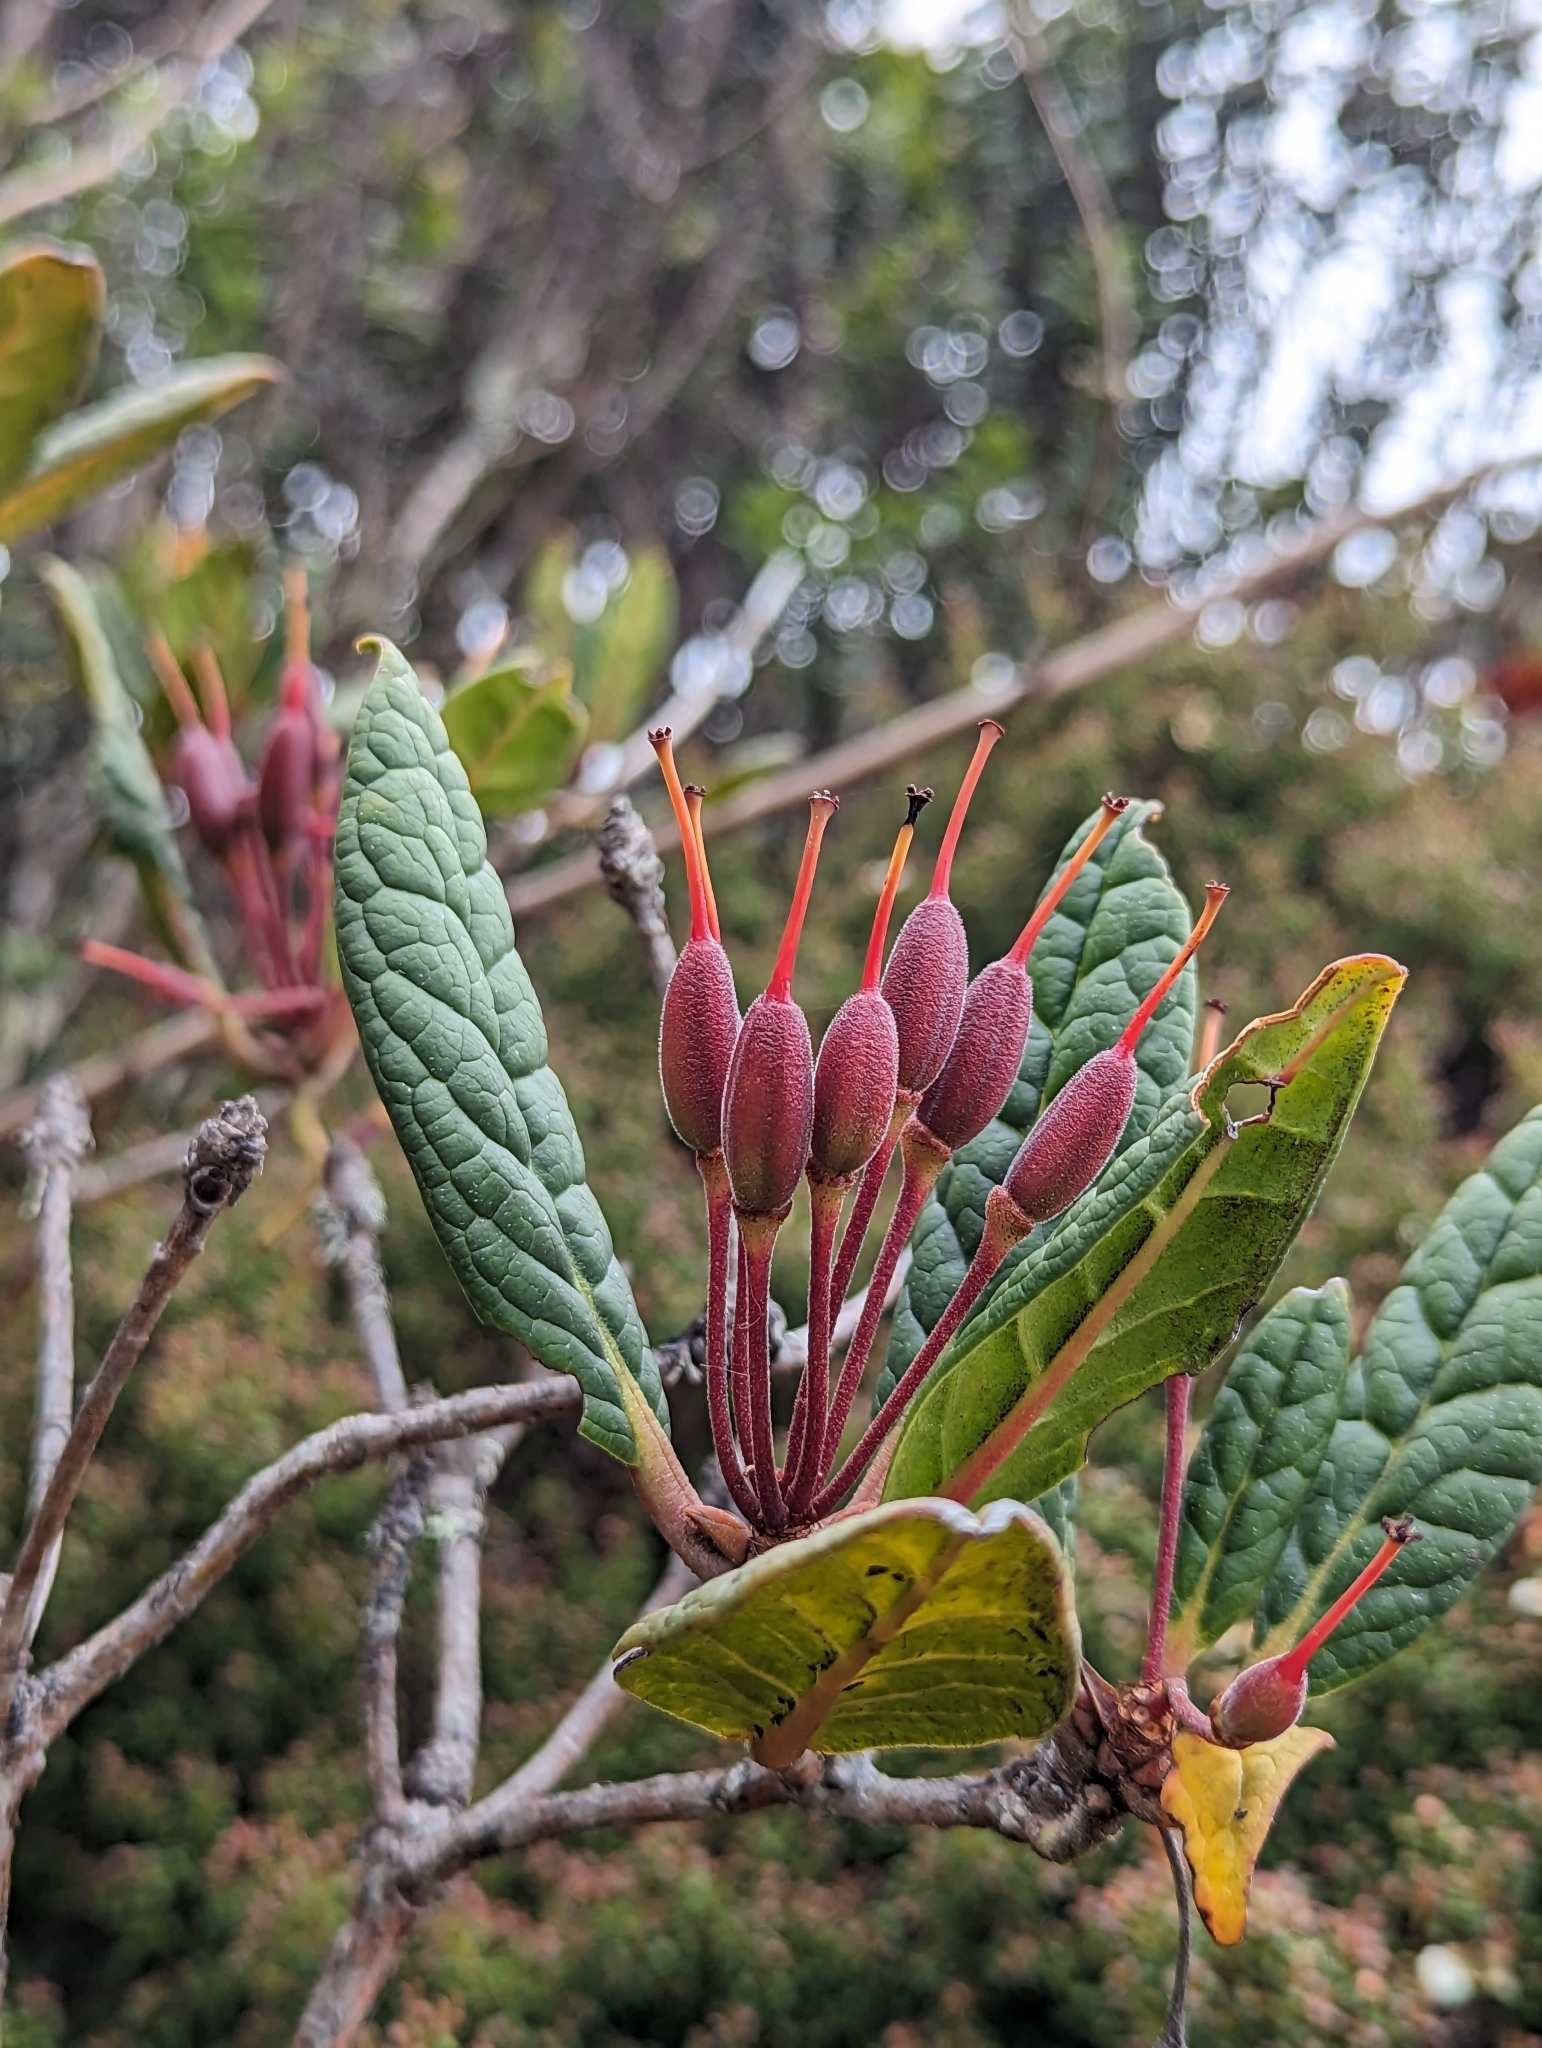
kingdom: Plantae
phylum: Tracheophyta
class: Magnoliopsida
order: Ericales
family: Ericaceae
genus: Rhododendron
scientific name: Rhododendron rugosum
